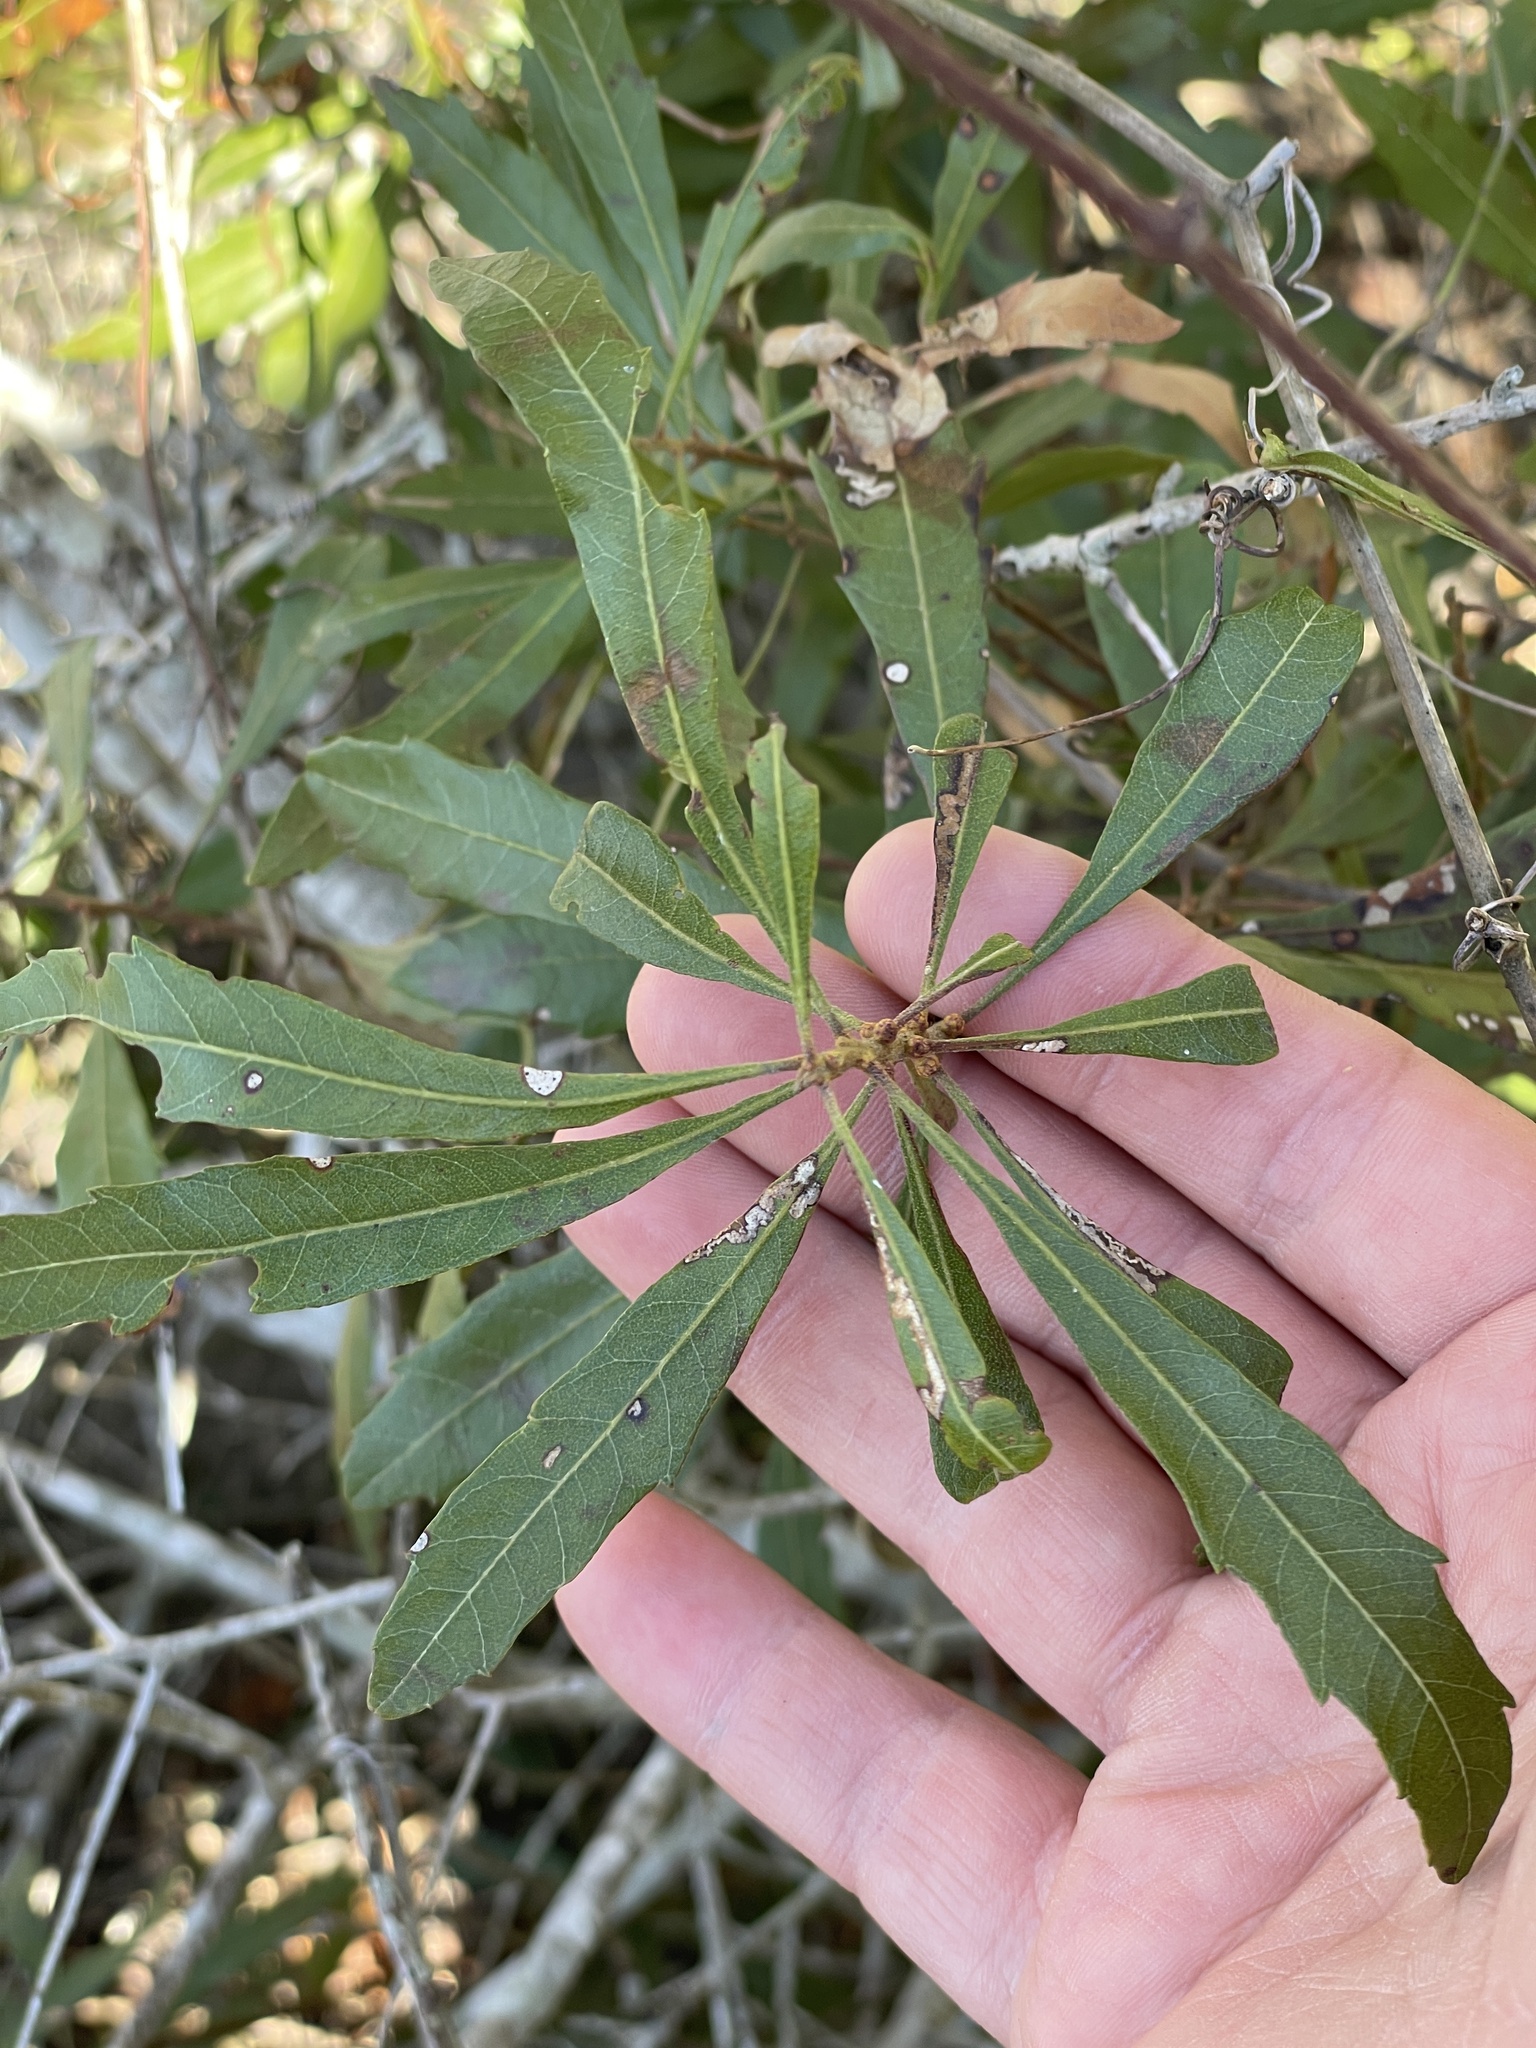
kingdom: Plantae
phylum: Tracheophyta
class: Magnoliopsida
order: Fagales
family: Myricaceae
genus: Morella
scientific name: Morella cerifera
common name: Wax myrtle
